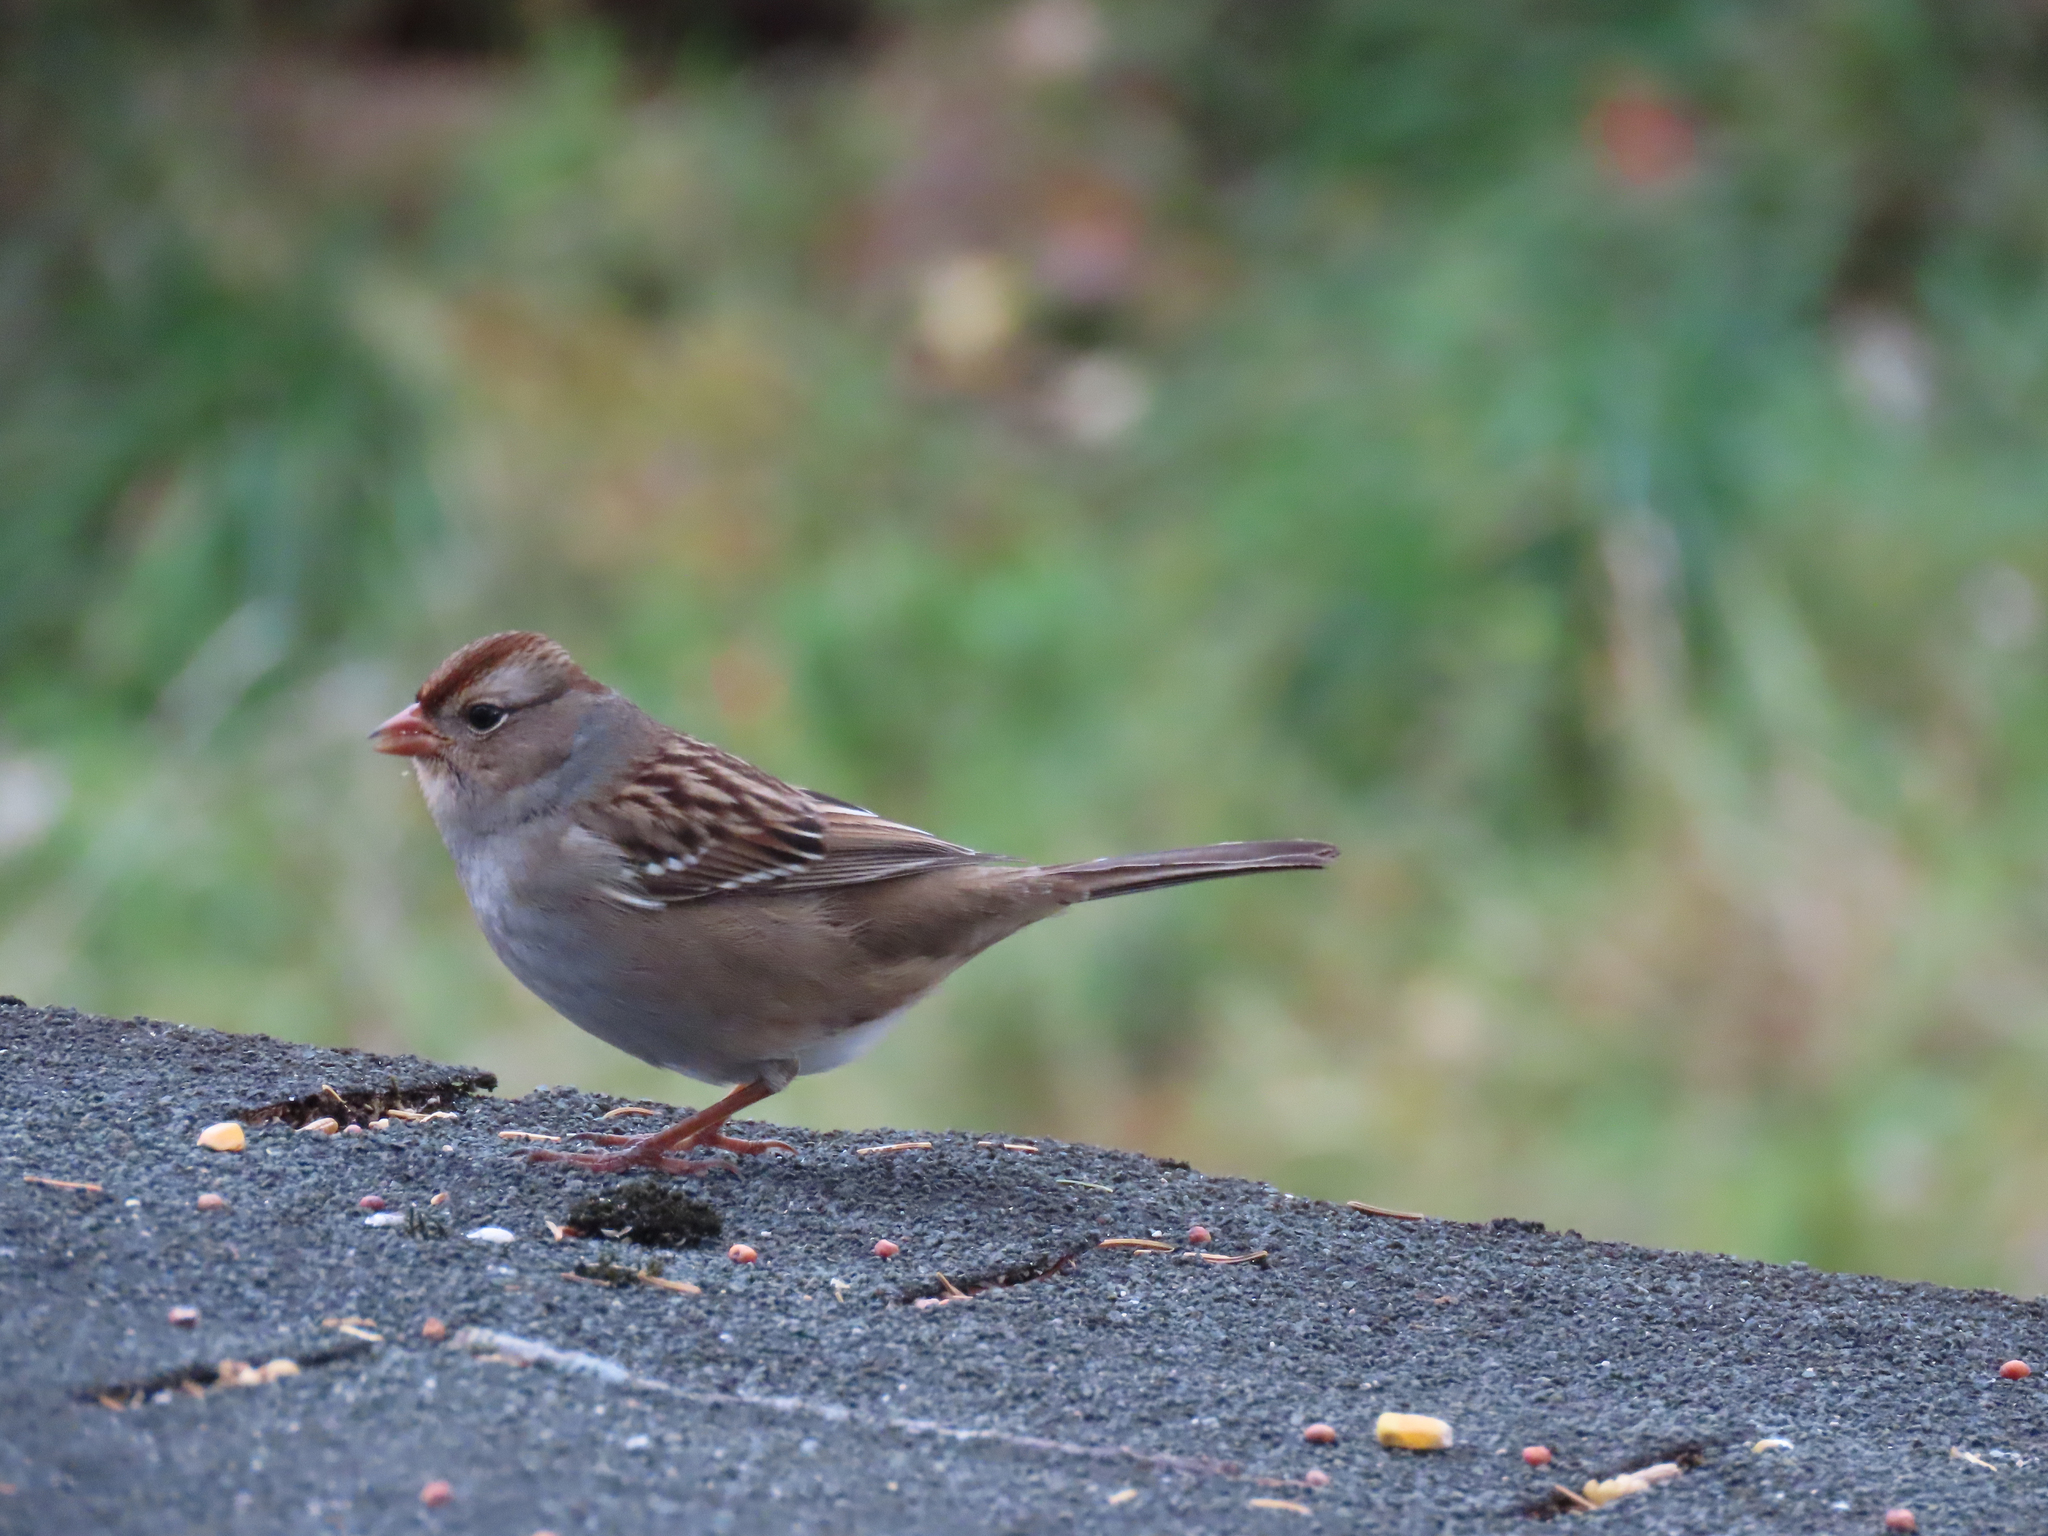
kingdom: Animalia
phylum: Chordata
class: Aves
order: Passeriformes
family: Passerellidae
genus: Zonotrichia
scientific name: Zonotrichia leucophrys
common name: White-crowned sparrow
